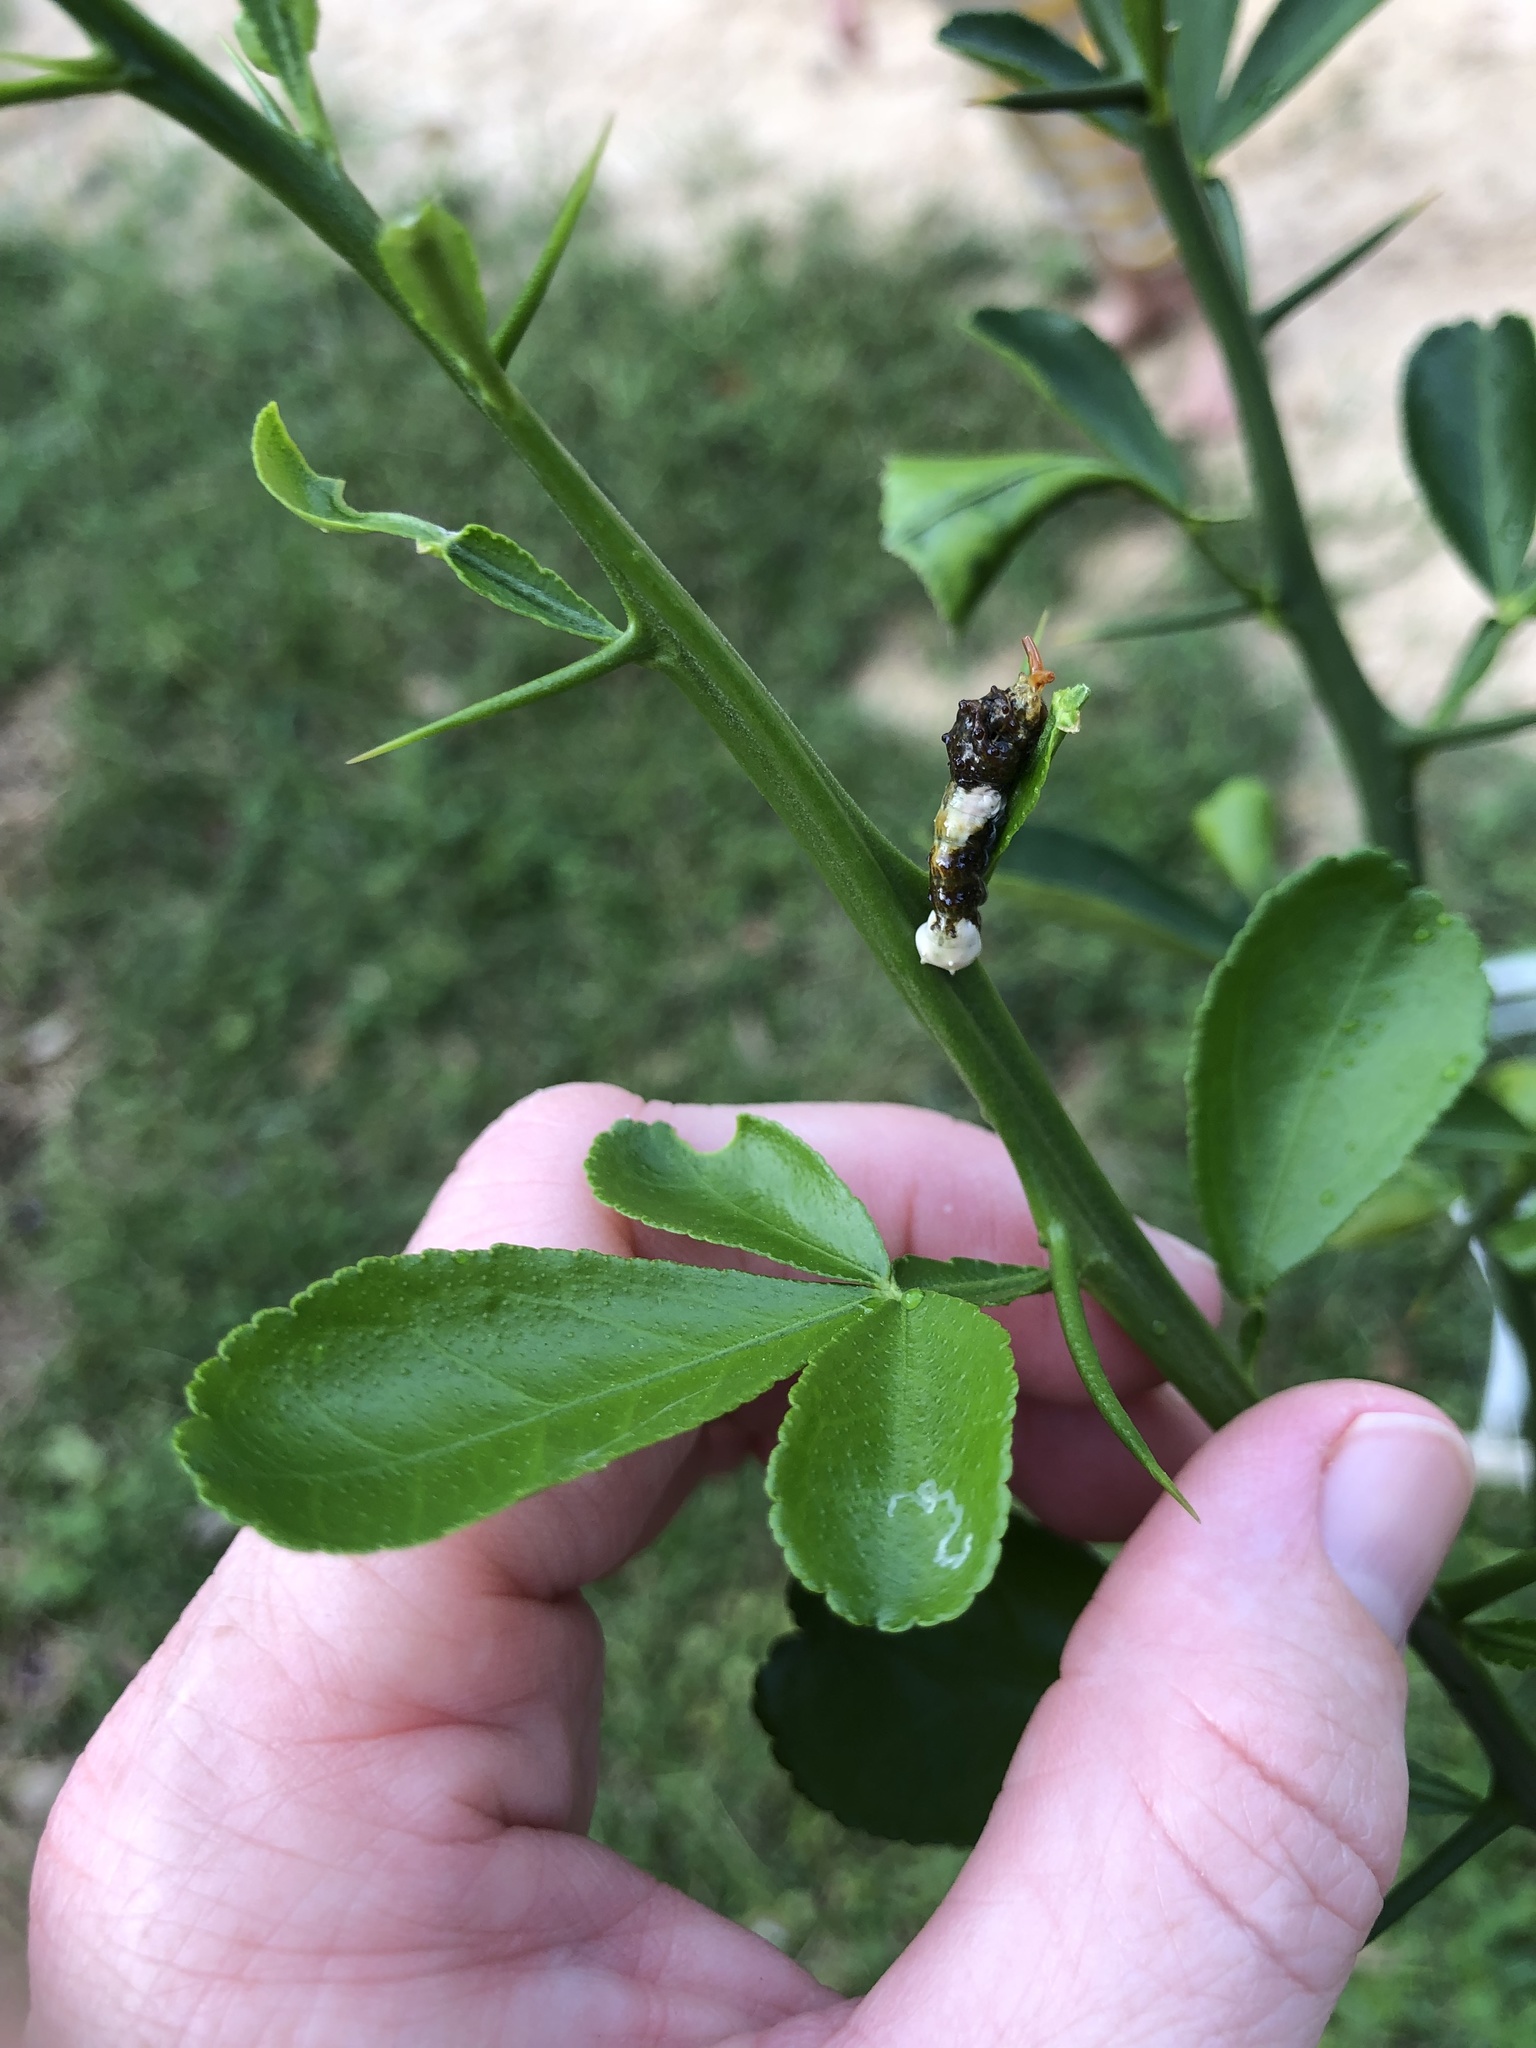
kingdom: Animalia
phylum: Arthropoda
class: Insecta
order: Lepidoptera
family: Papilionidae
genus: Papilio
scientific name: Papilio cresphontes
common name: Giant swallowtail
